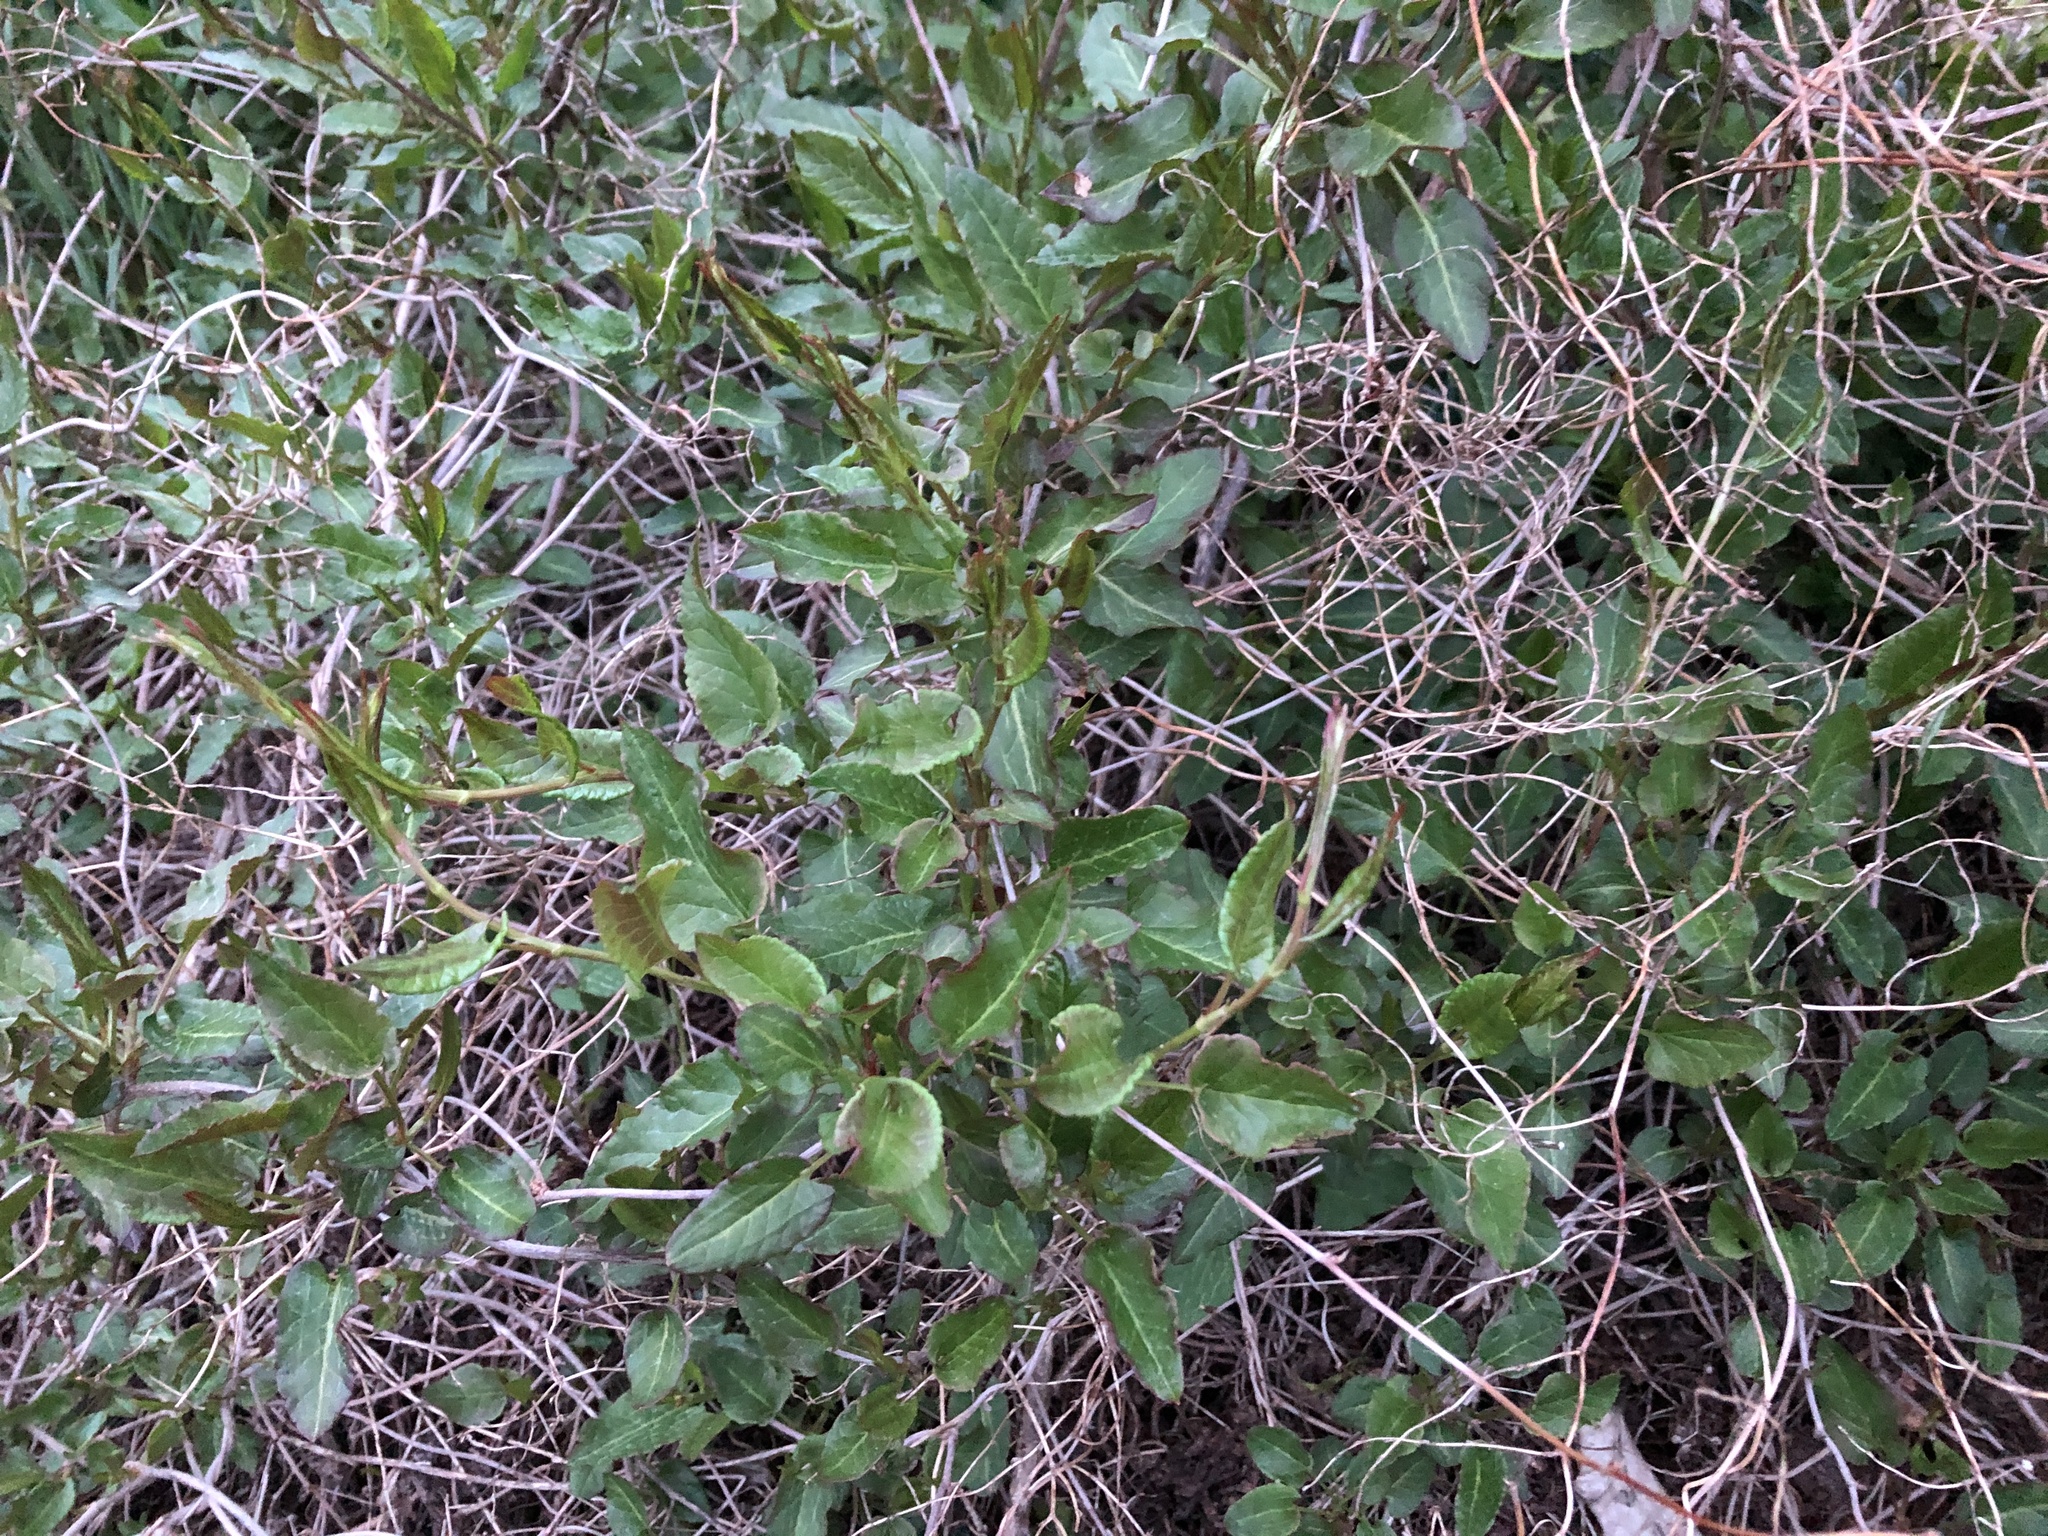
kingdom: Plantae
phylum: Tracheophyta
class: Magnoliopsida
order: Caryophyllales
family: Polygonaceae
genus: Fallopia
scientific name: Fallopia baldschuanica
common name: Russian-vine
